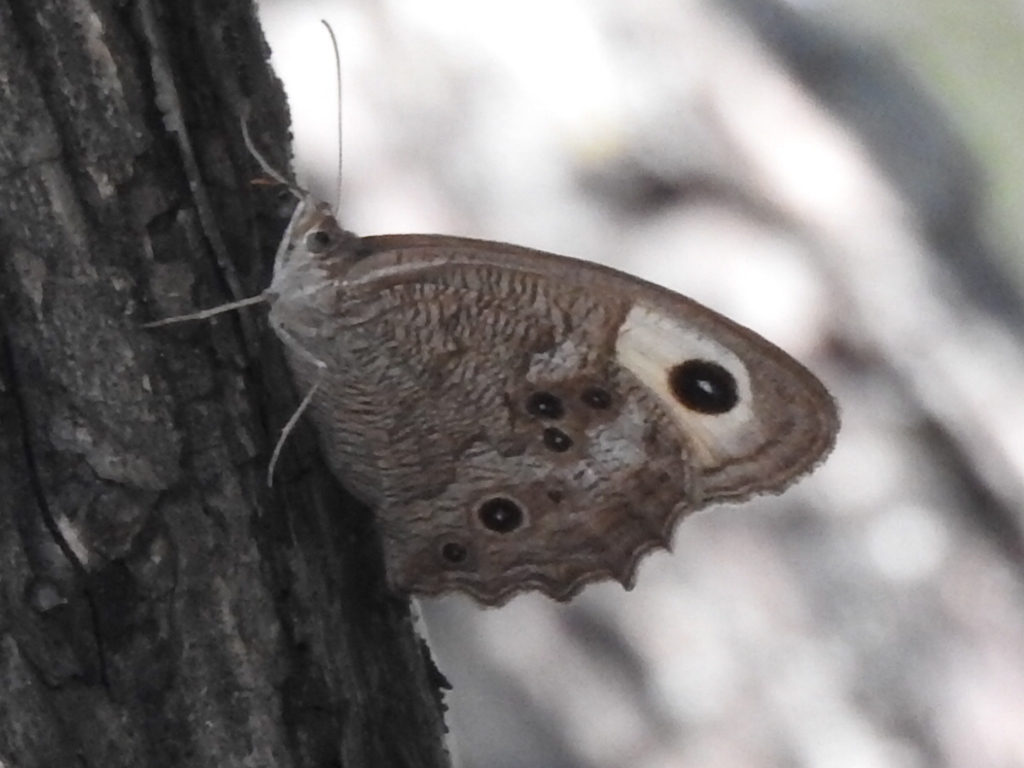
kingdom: Animalia
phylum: Arthropoda
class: Insecta
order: Lepidoptera
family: Nymphalidae
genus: Cercyonis
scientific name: Cercyonis pegala
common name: Common wood-nymph
